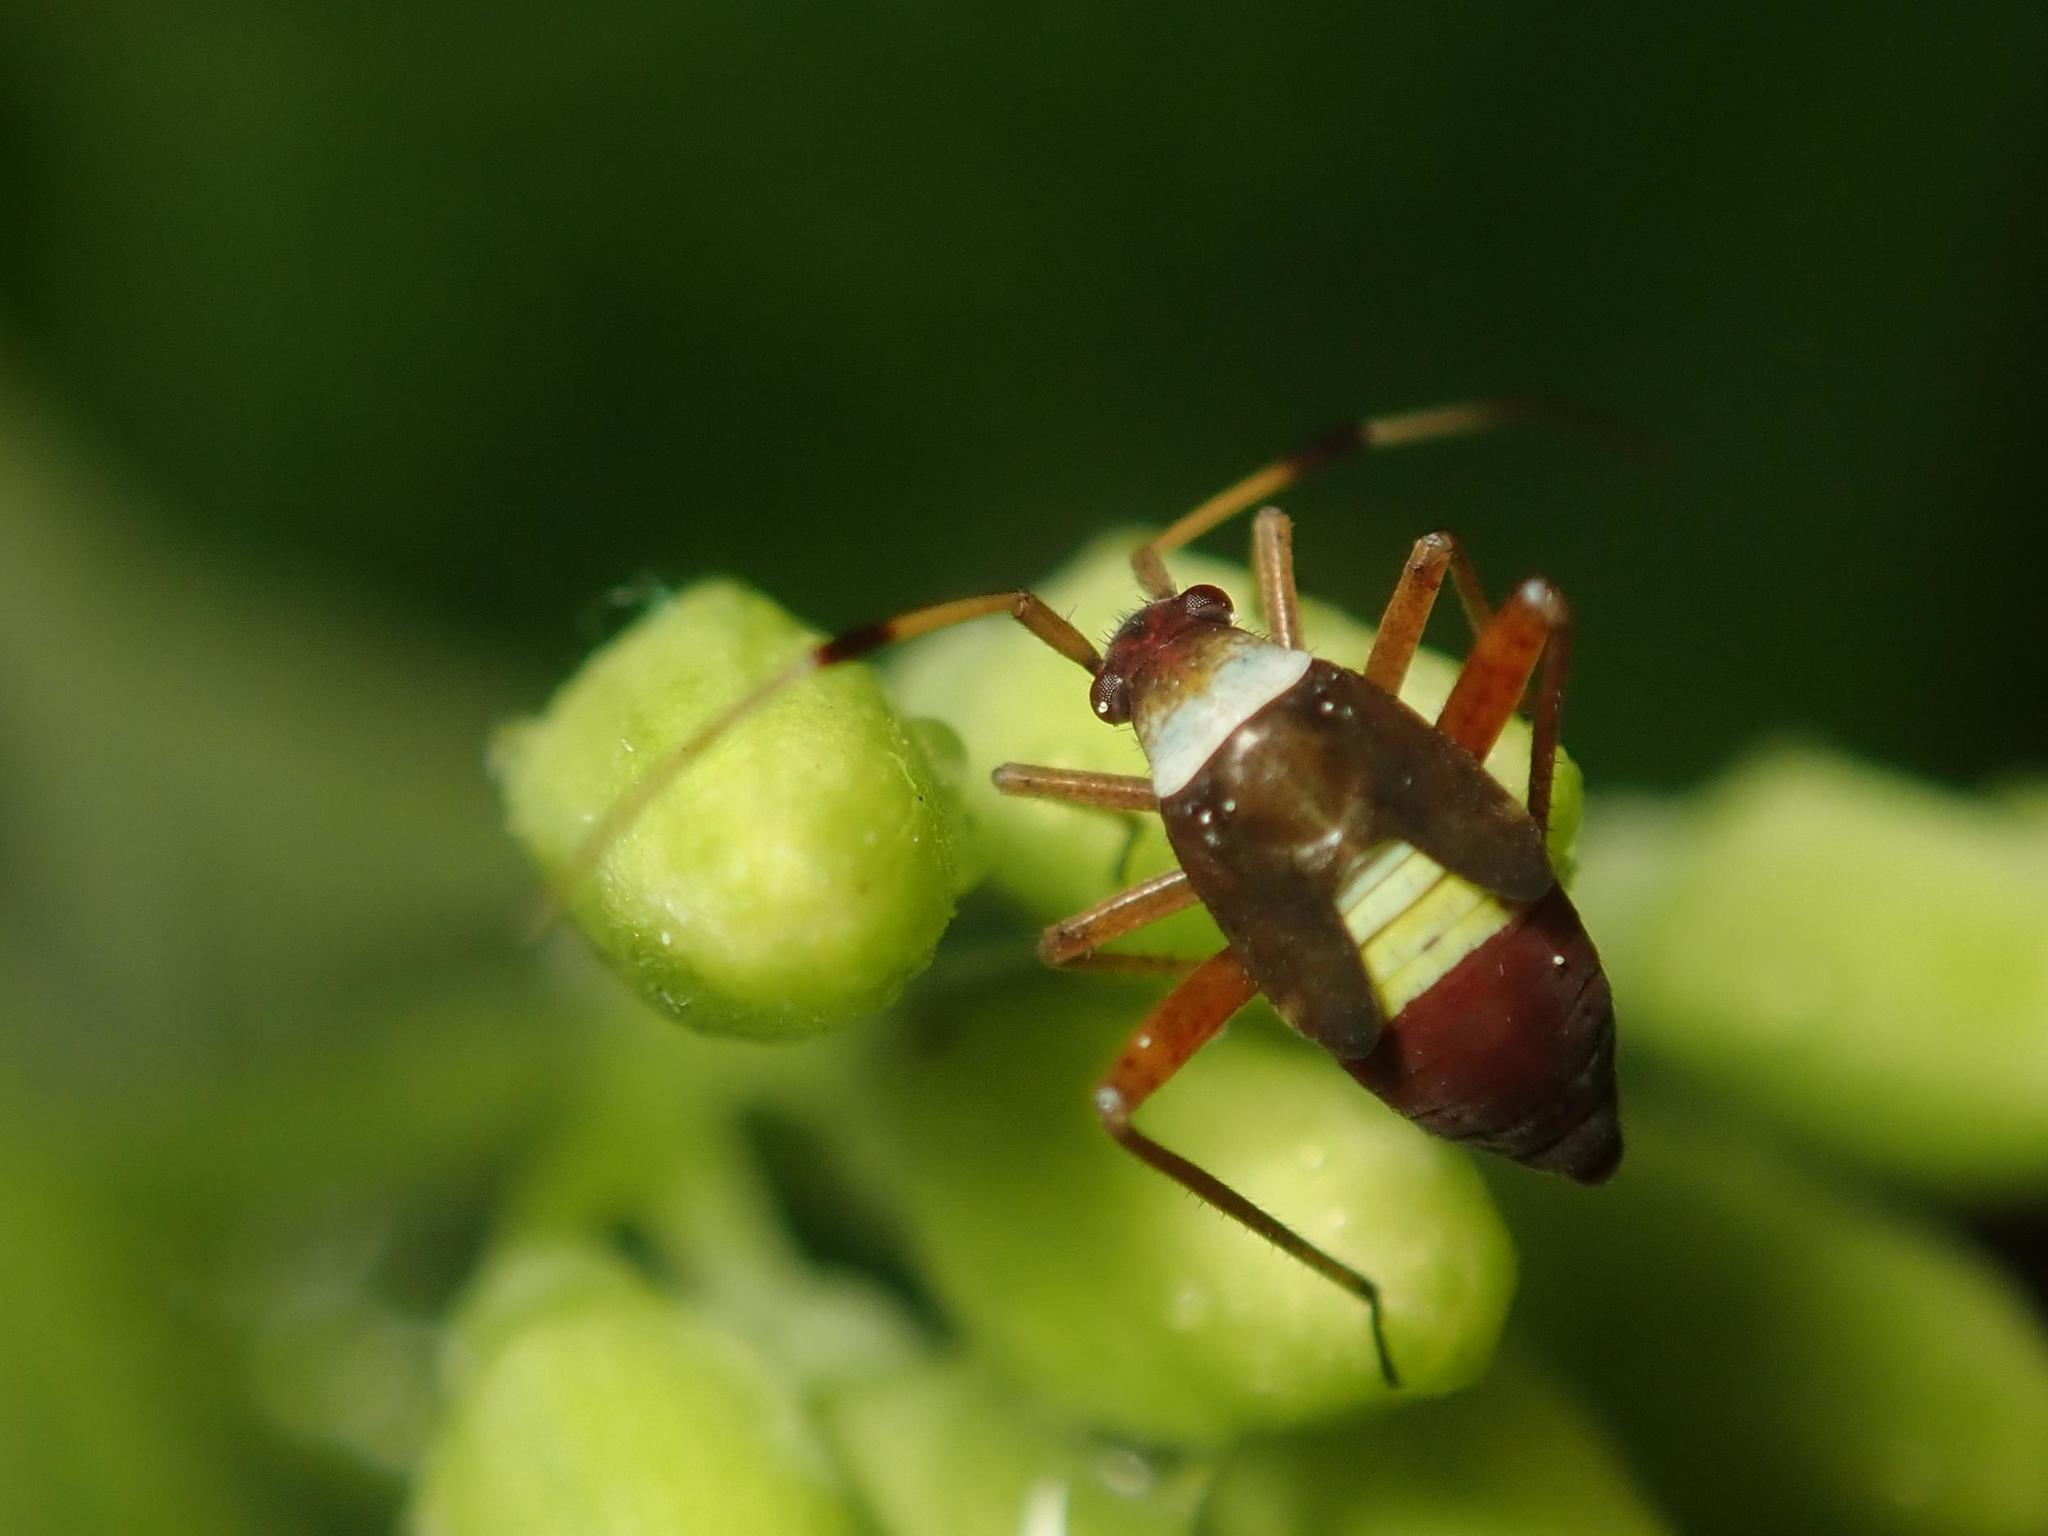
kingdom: Animalia
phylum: Arthropoda
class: Insecta
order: Hemiptera
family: Miridae
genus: Closterotomus
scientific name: Closterotomus biclavatus
